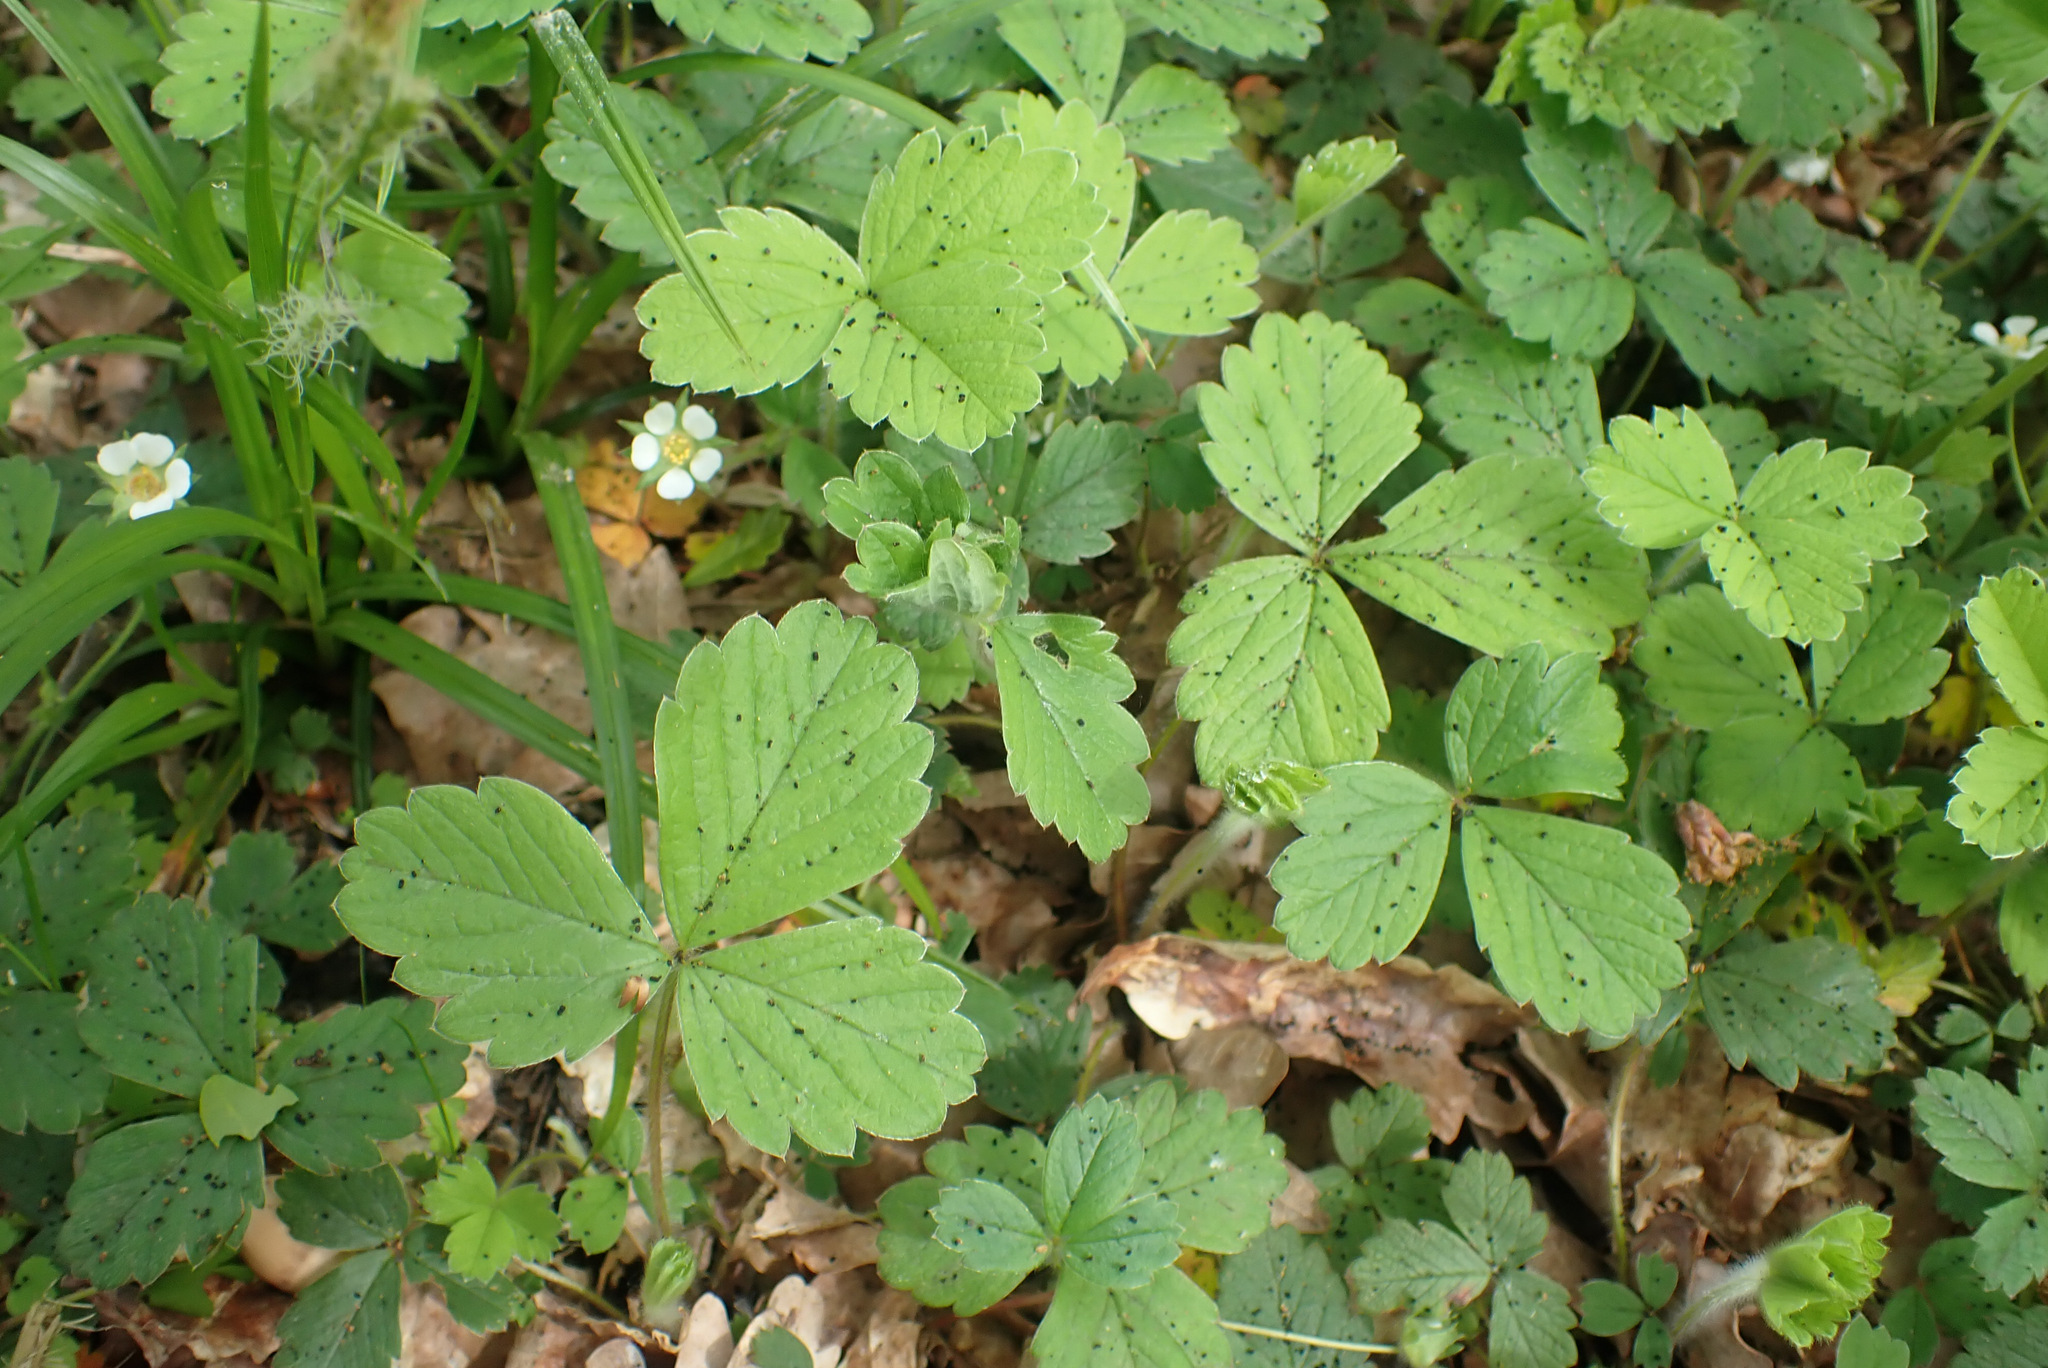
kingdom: Plantae
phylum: Tracheophyta
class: Magnoliopsida
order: Rosales
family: Rosaceae
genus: Potentilla
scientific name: Potentilla sterilis
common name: Barren strawberry
